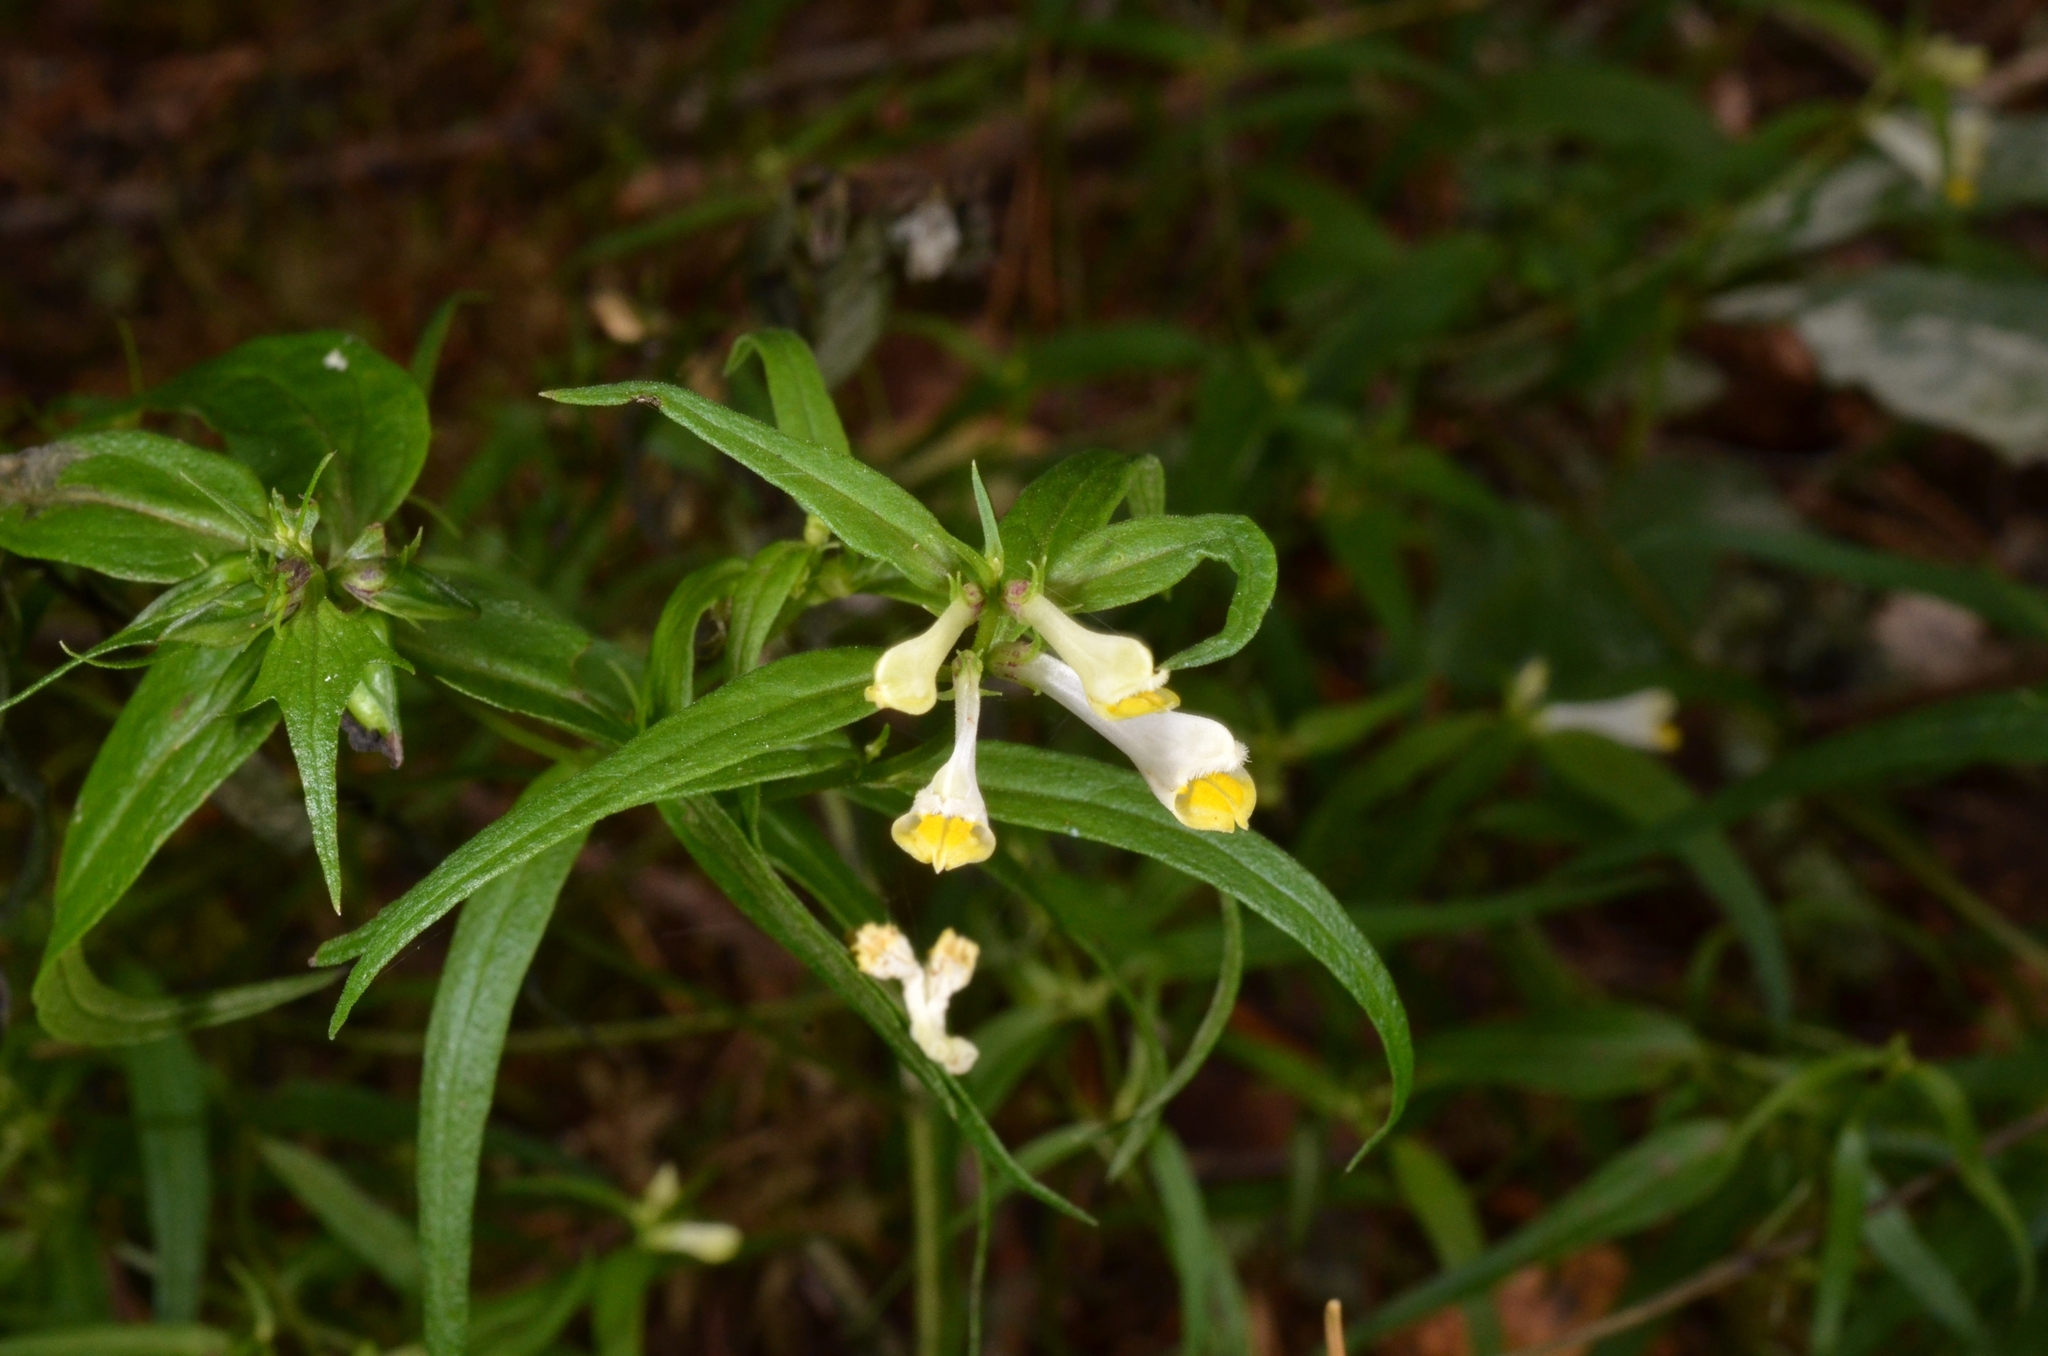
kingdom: Plantae
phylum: Tracheophyta
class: Magnoliopsida
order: Lamiales
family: Orobanchaceae
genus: Melampyrum
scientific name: Melampyrum pratense
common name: Common cow-wheat
